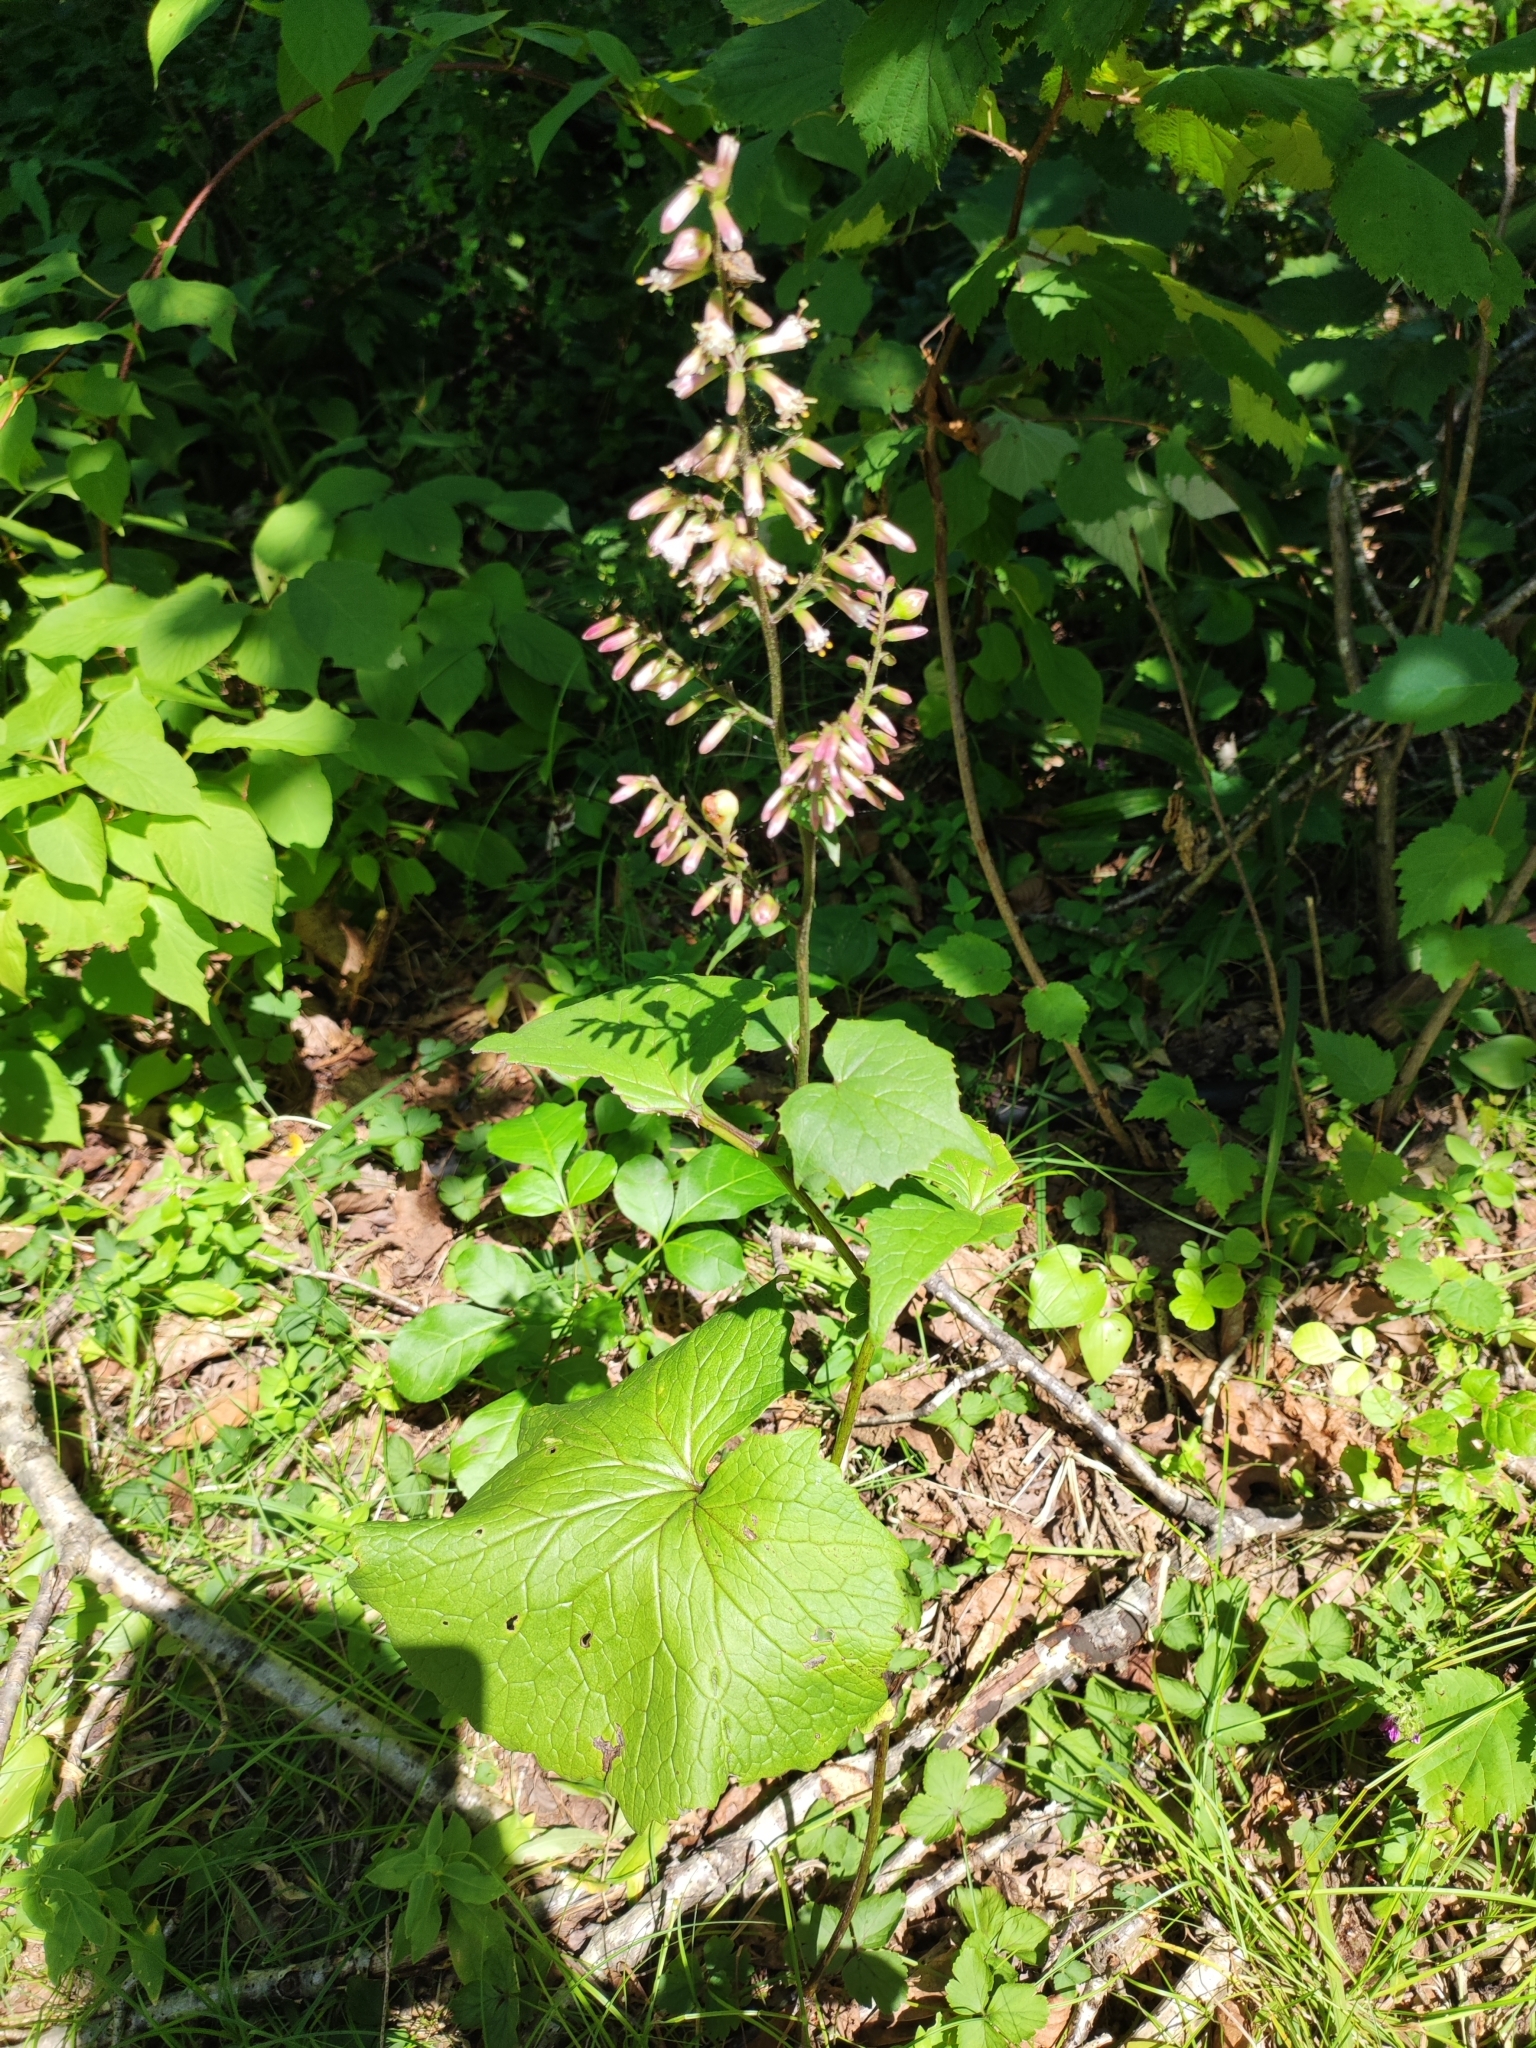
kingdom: Plantae
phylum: Tracheophyta
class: Magnoliopsida
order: Asterales
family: Asteraceae
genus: Parasenecio
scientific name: Parasenecio praetermissus
